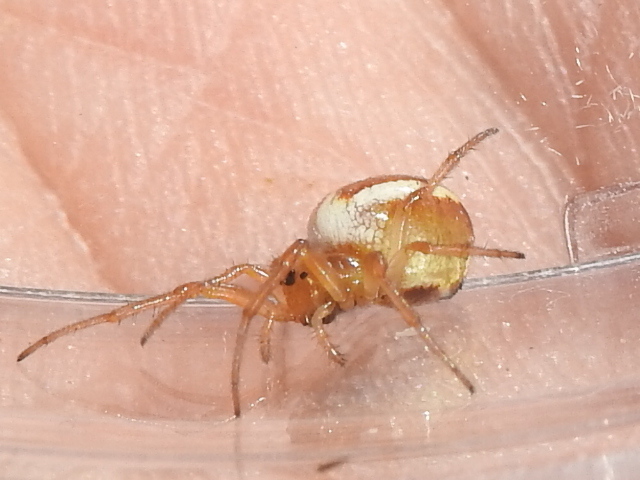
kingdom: Animalia
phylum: Arthropoda
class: Arachnida
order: Araneae
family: Araneidae
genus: Araneus
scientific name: Araneus pratensis
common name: Openfield orbweaver
